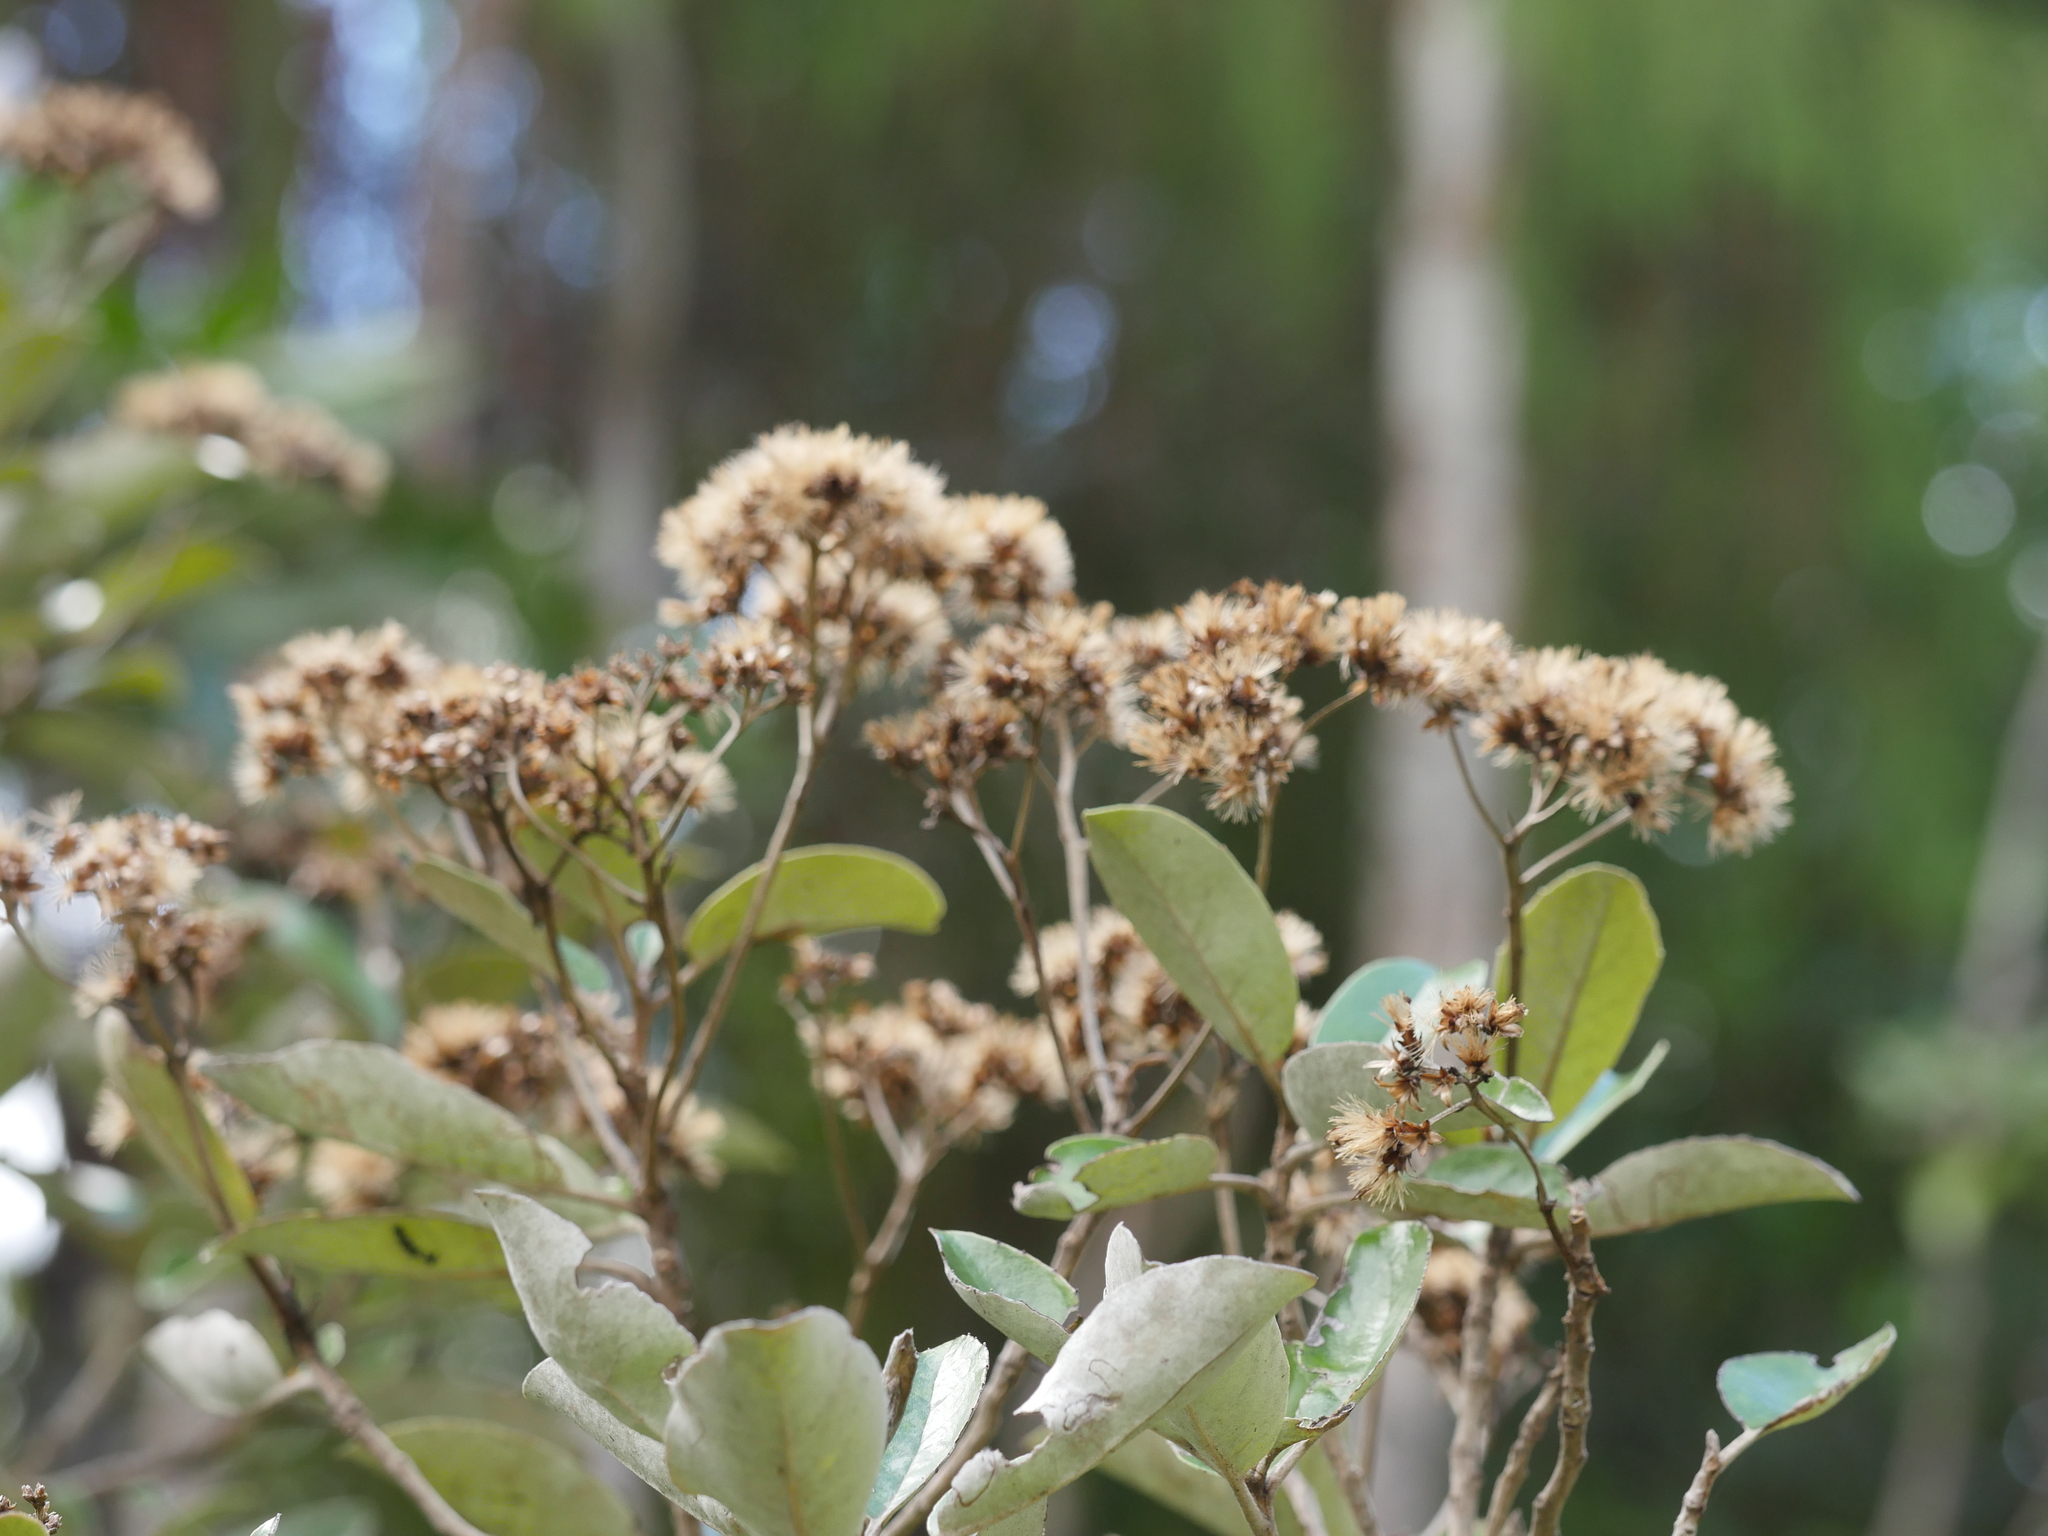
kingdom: Plantae
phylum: Tracheophyta
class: Magnoliopsida
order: Asterales
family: Asteraceae
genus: Olearia
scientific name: Olearia furfuracea
